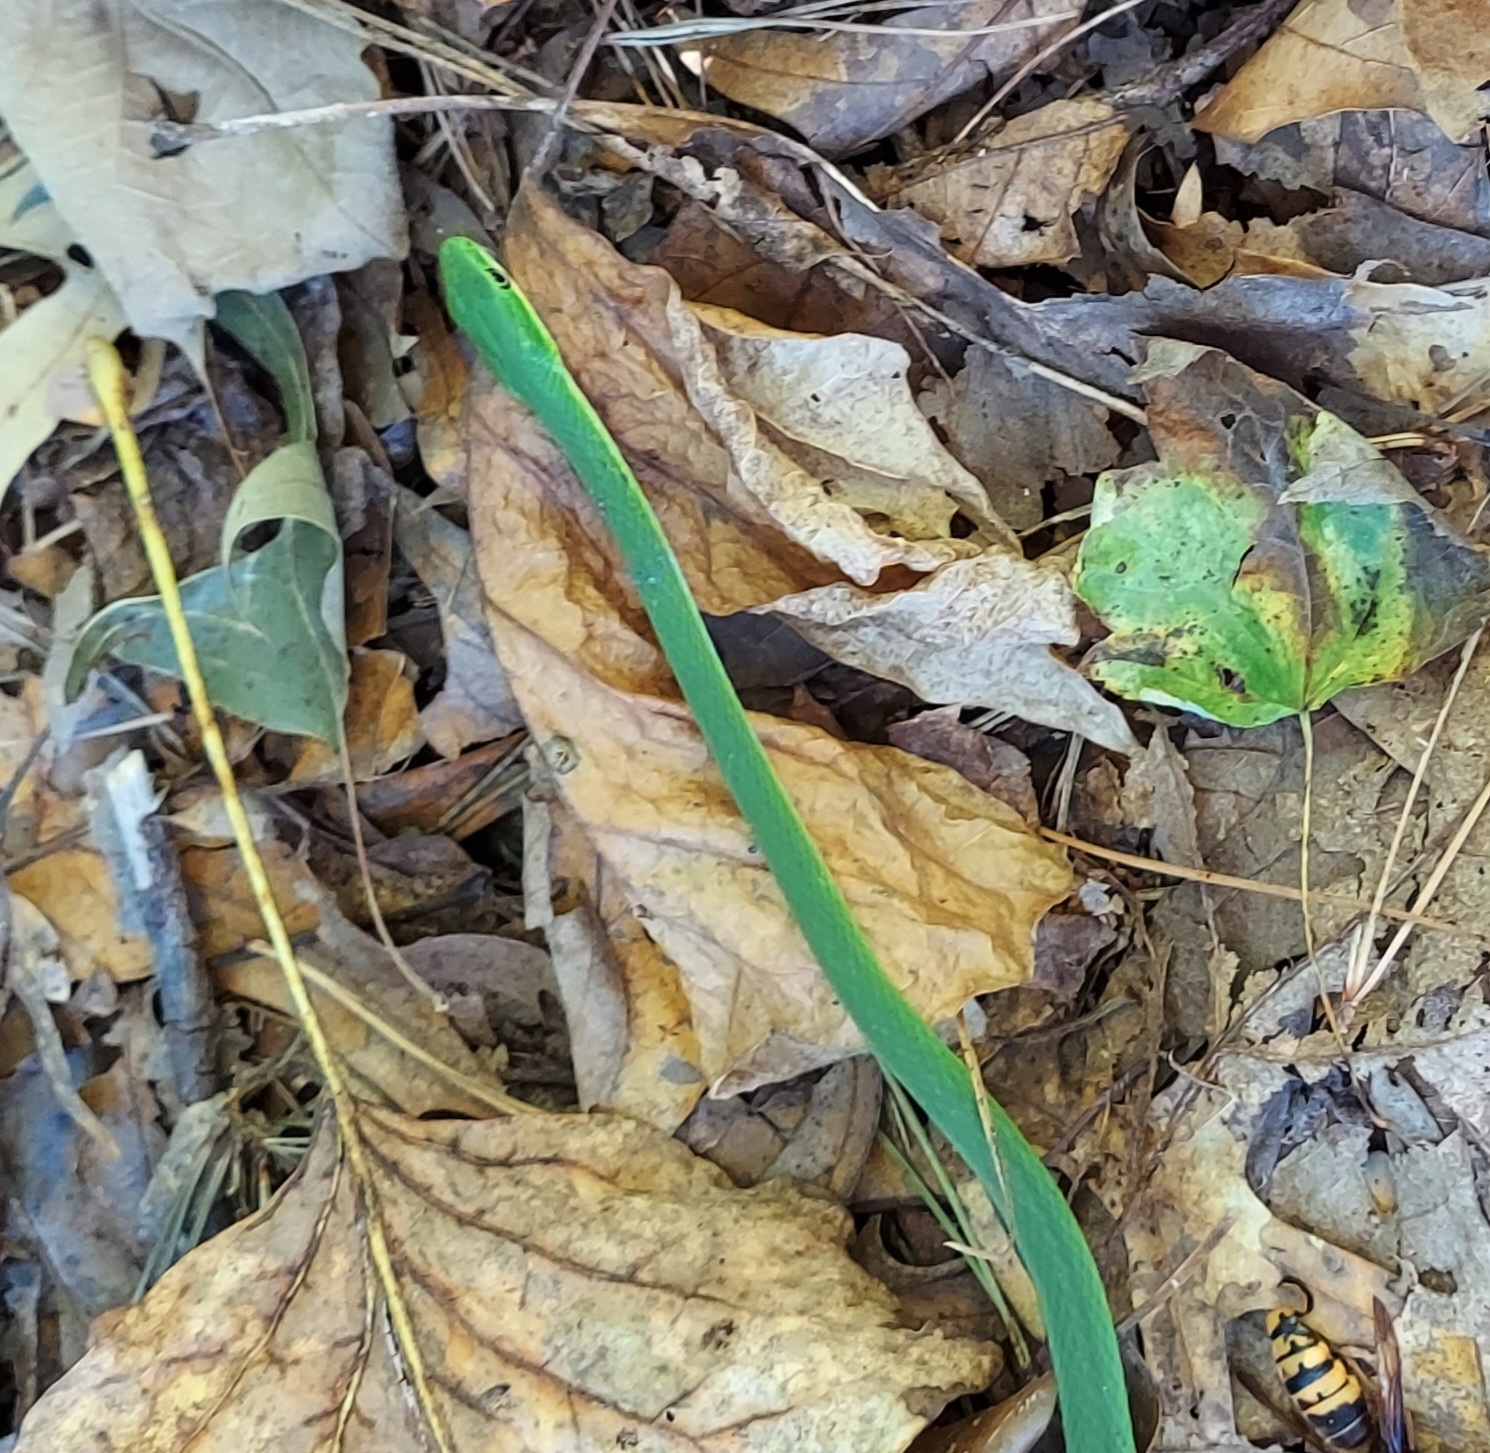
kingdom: Animalia
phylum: Chordata
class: Squamata
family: Colubridae
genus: Opheodrys
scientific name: Opheodrys aestivus
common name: Rough greensnake
